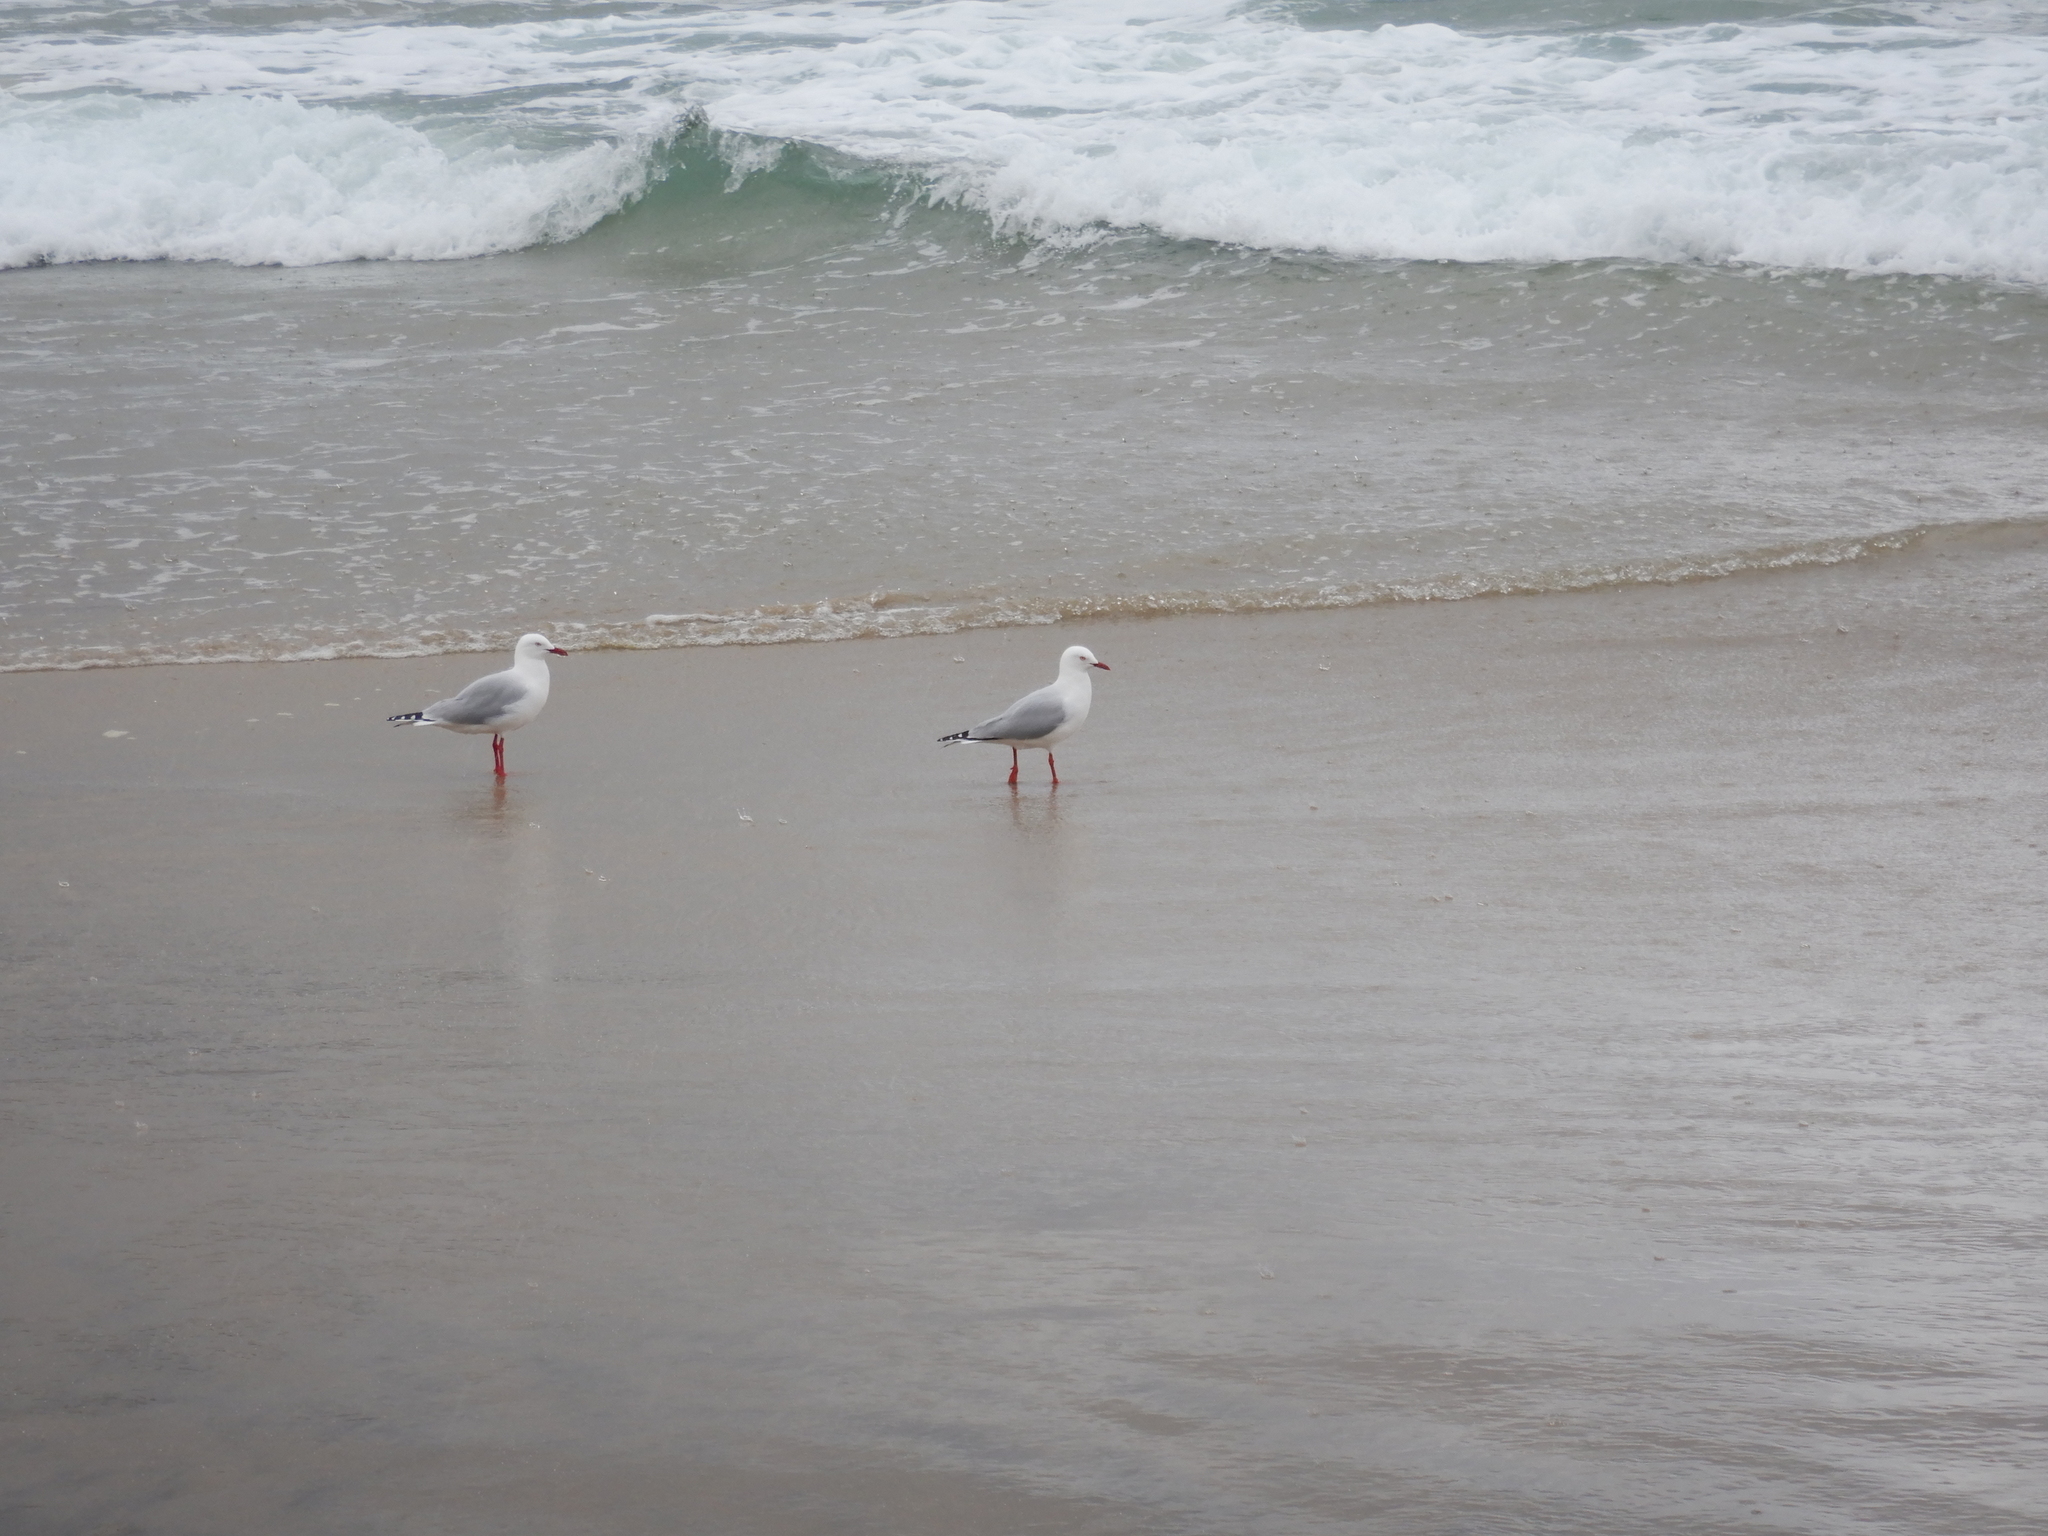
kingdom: Animalia
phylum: Chordata
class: Aves
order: Charadriiformes
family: Laridae
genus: Chroicocephalus
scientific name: Chroicocephalus novaehollandiae
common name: Silver gull
